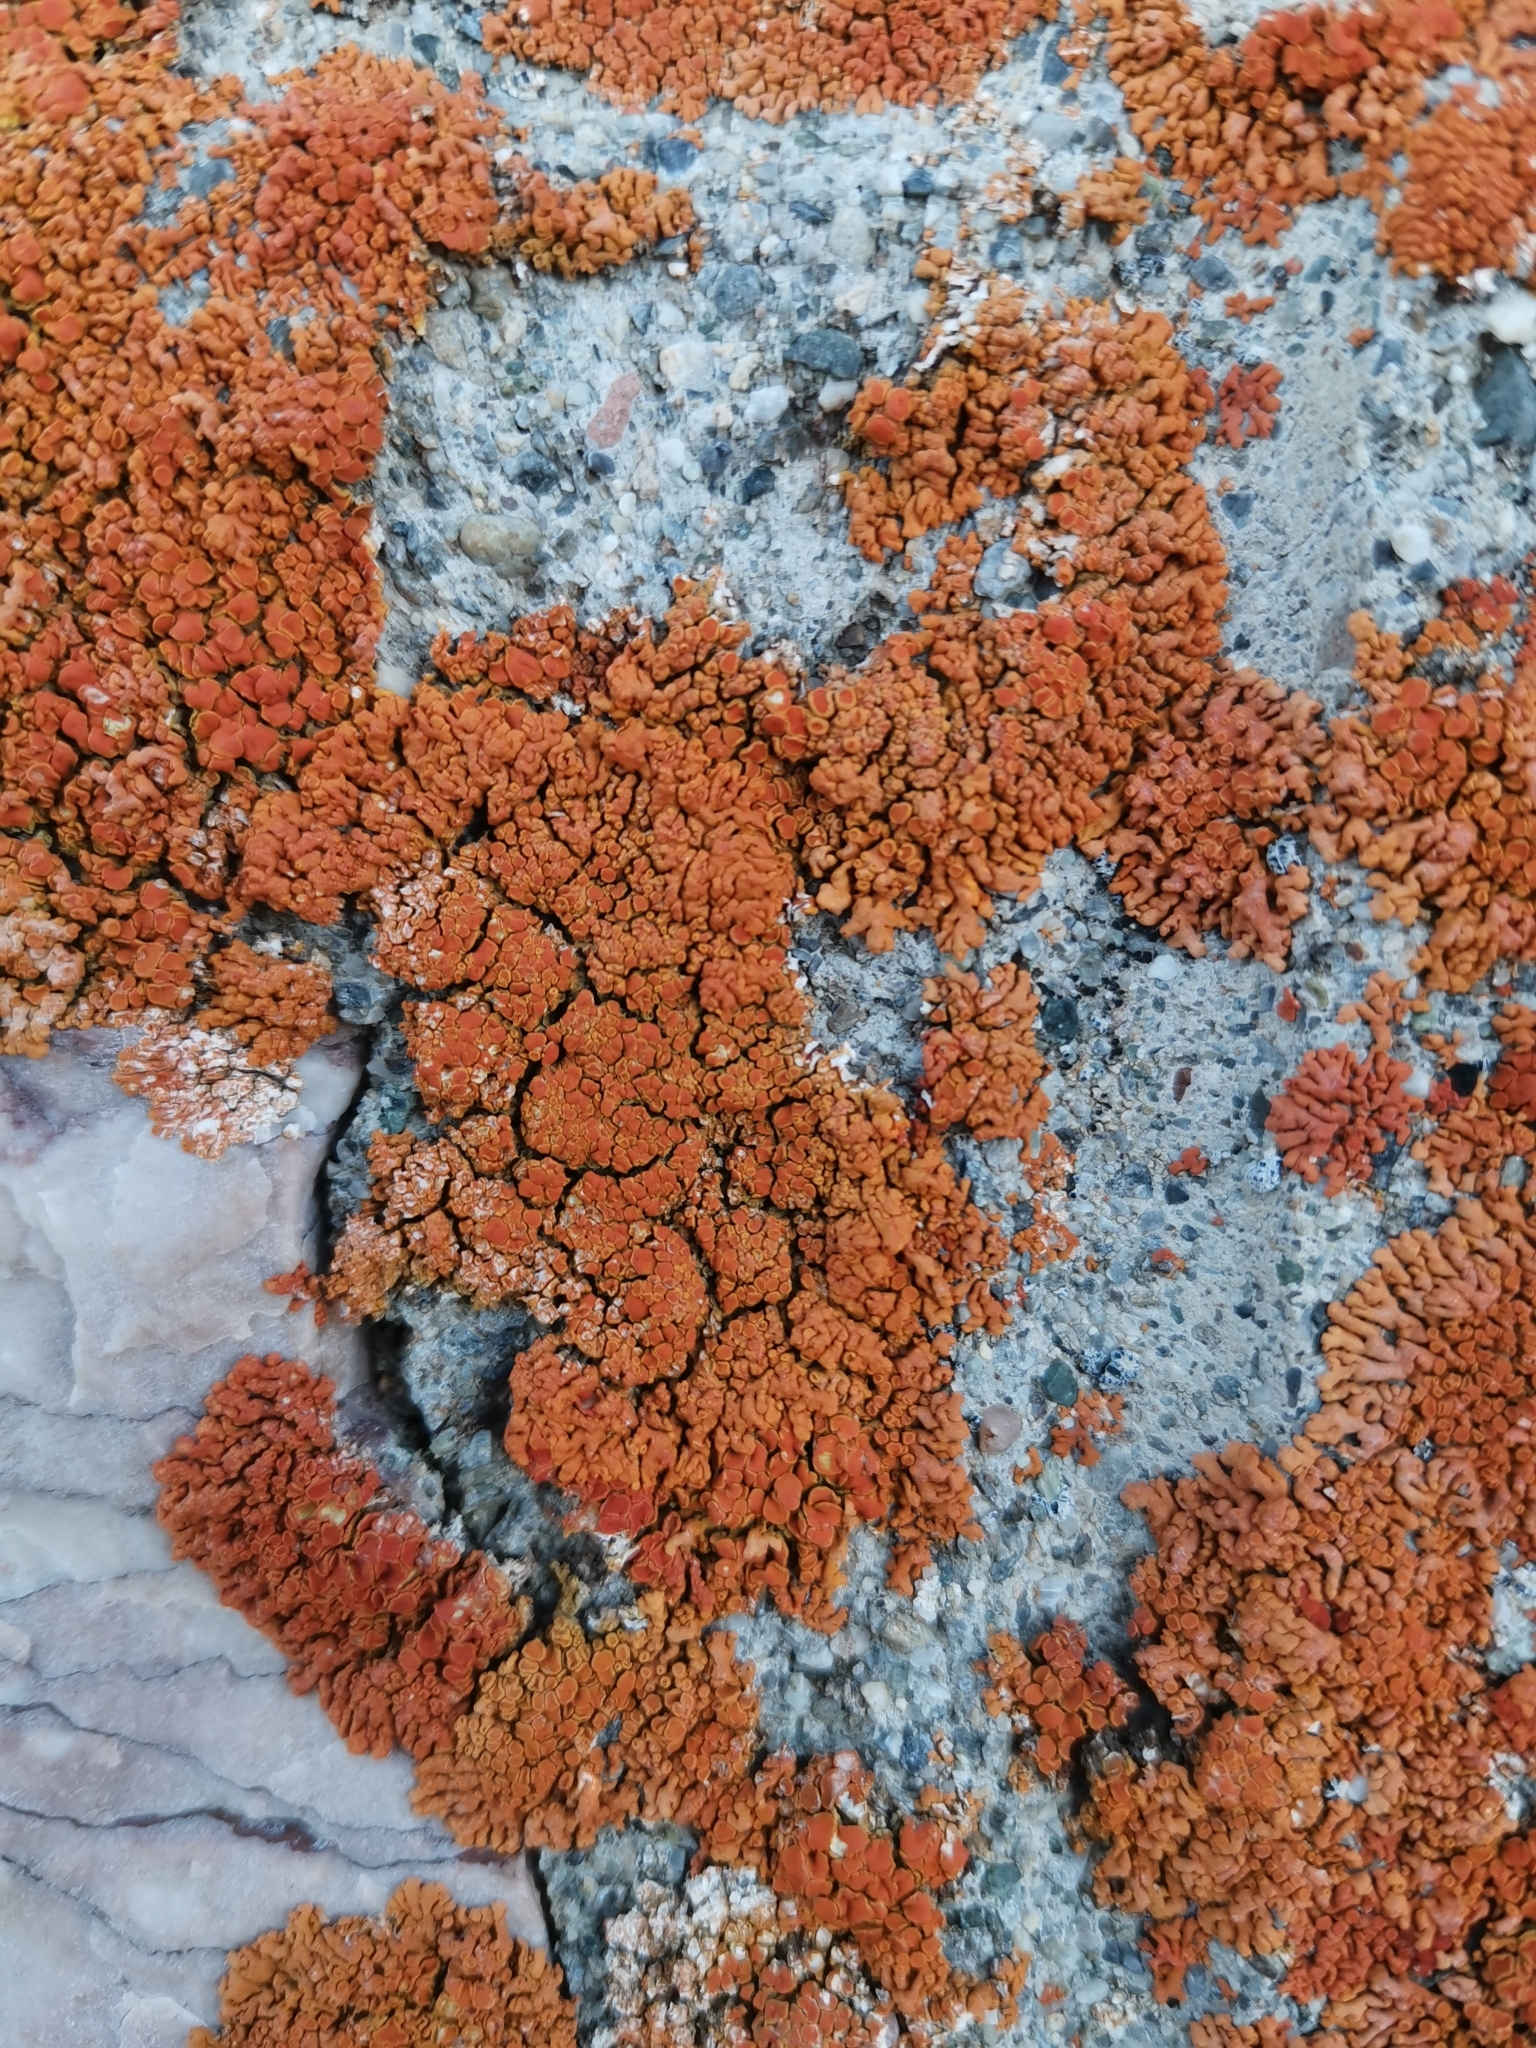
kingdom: Fungi
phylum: Ascomycota
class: Lecanoromycetes
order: Teloschistales
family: Teloschistaceae
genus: Xanthoria
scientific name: Xanthoria elegans
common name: Elegant sunburst lichen
